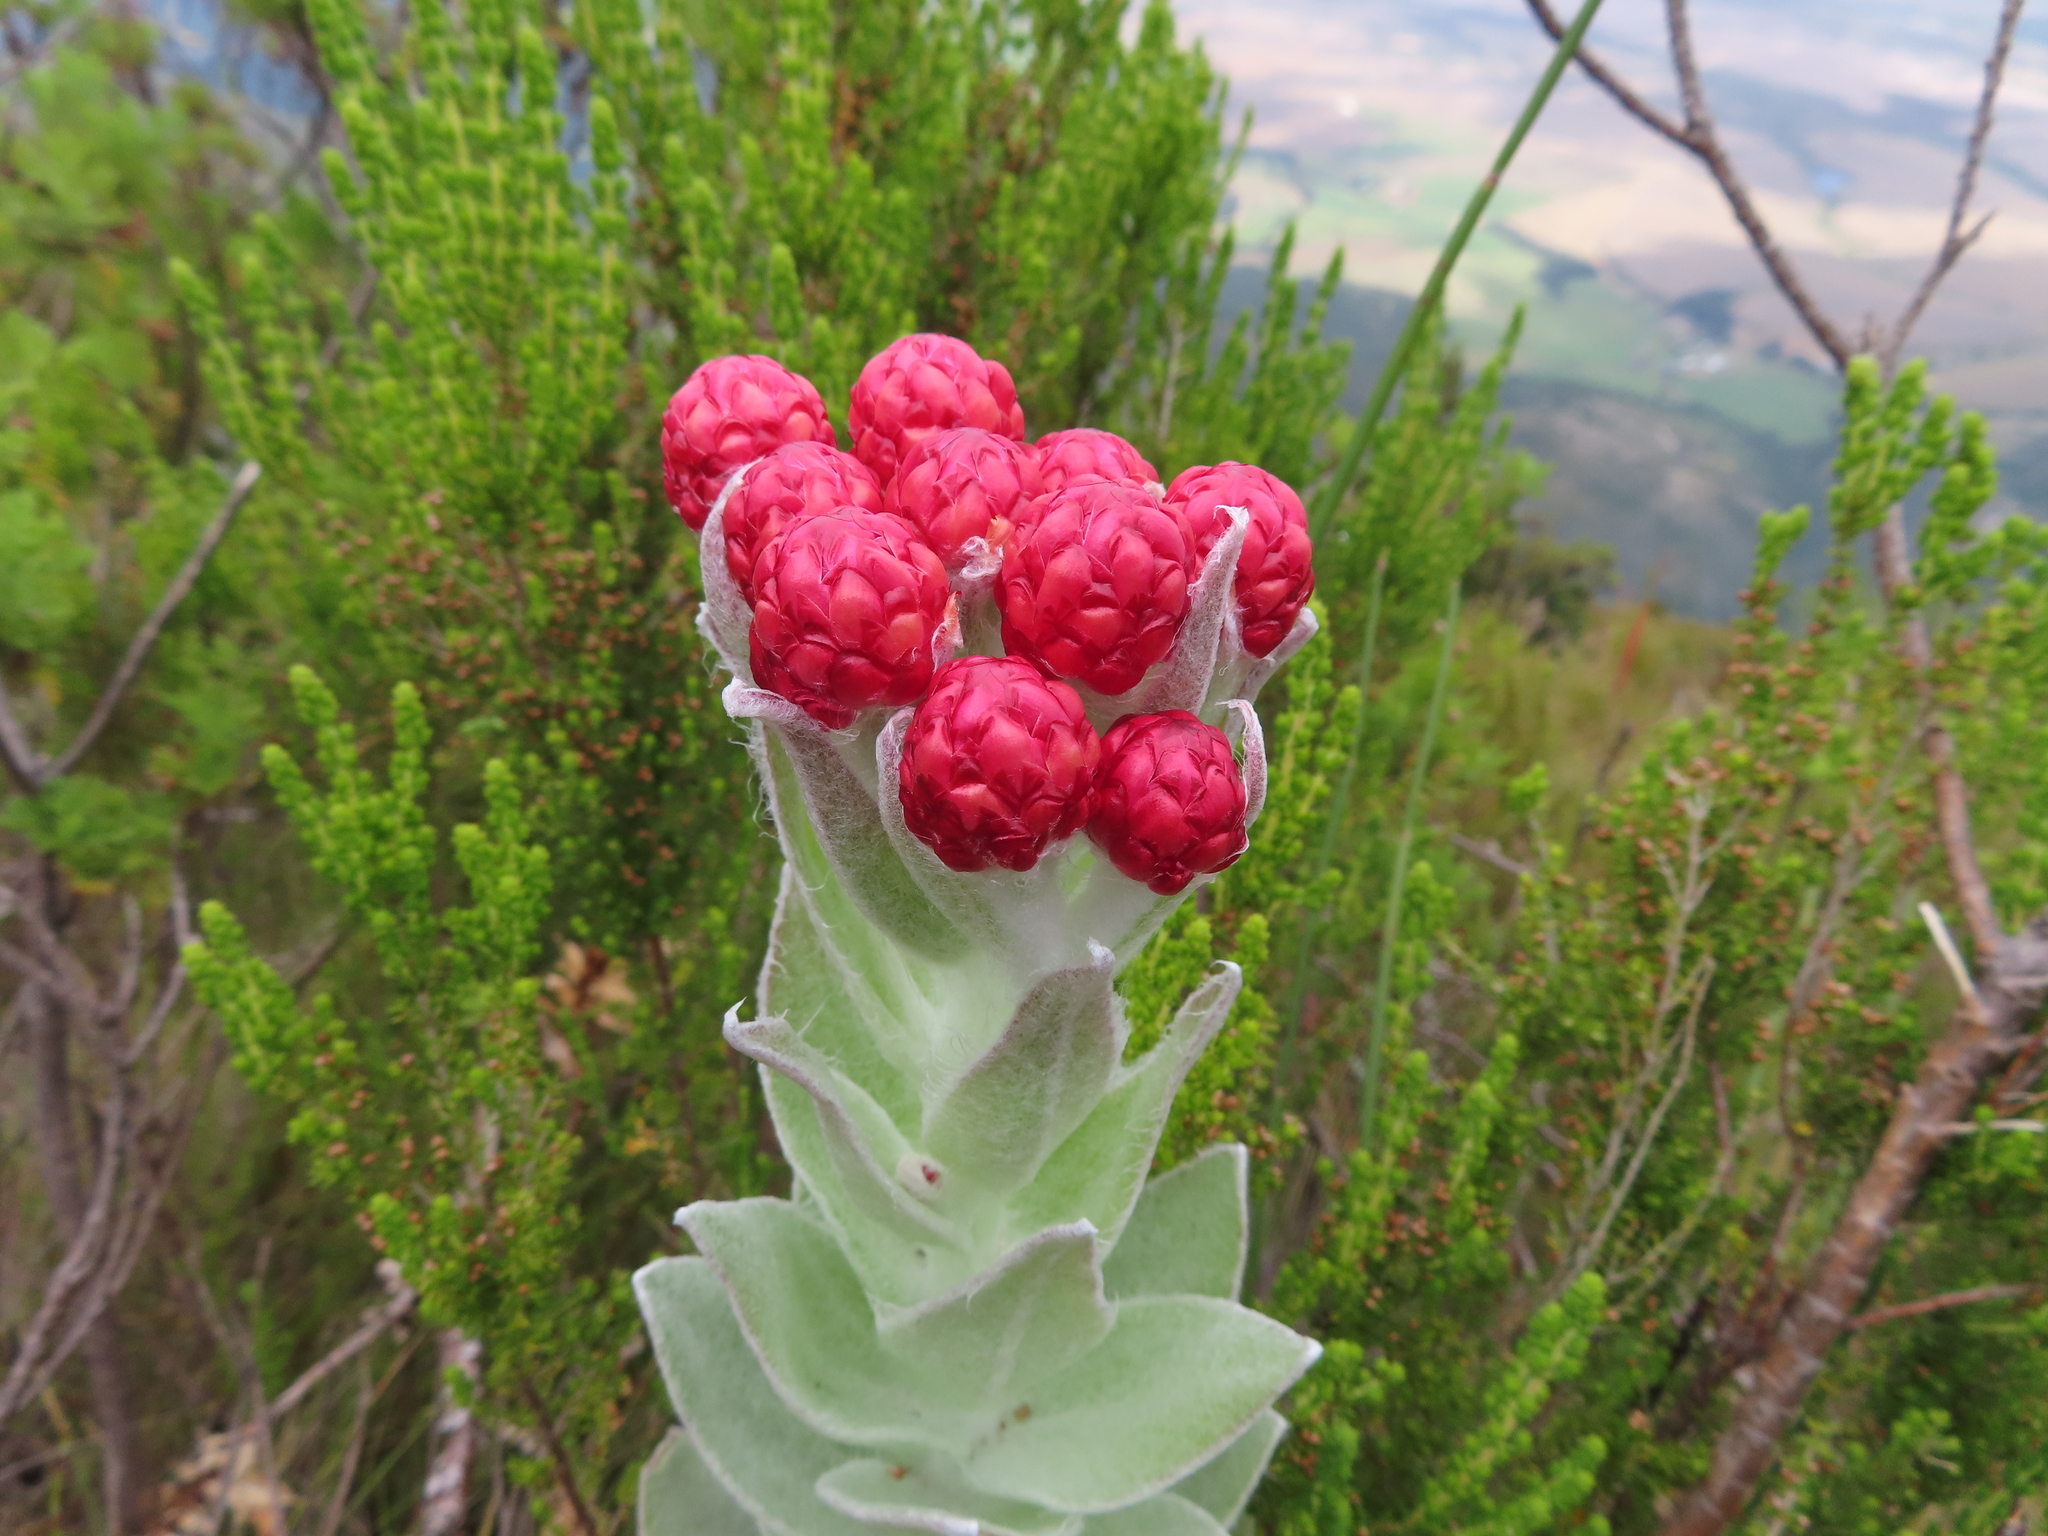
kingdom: Plantae
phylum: Tracheophyta
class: Magnoliopsida
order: Asterales
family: Asteraceae
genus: Syncarpha
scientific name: Syncarpha eximia
